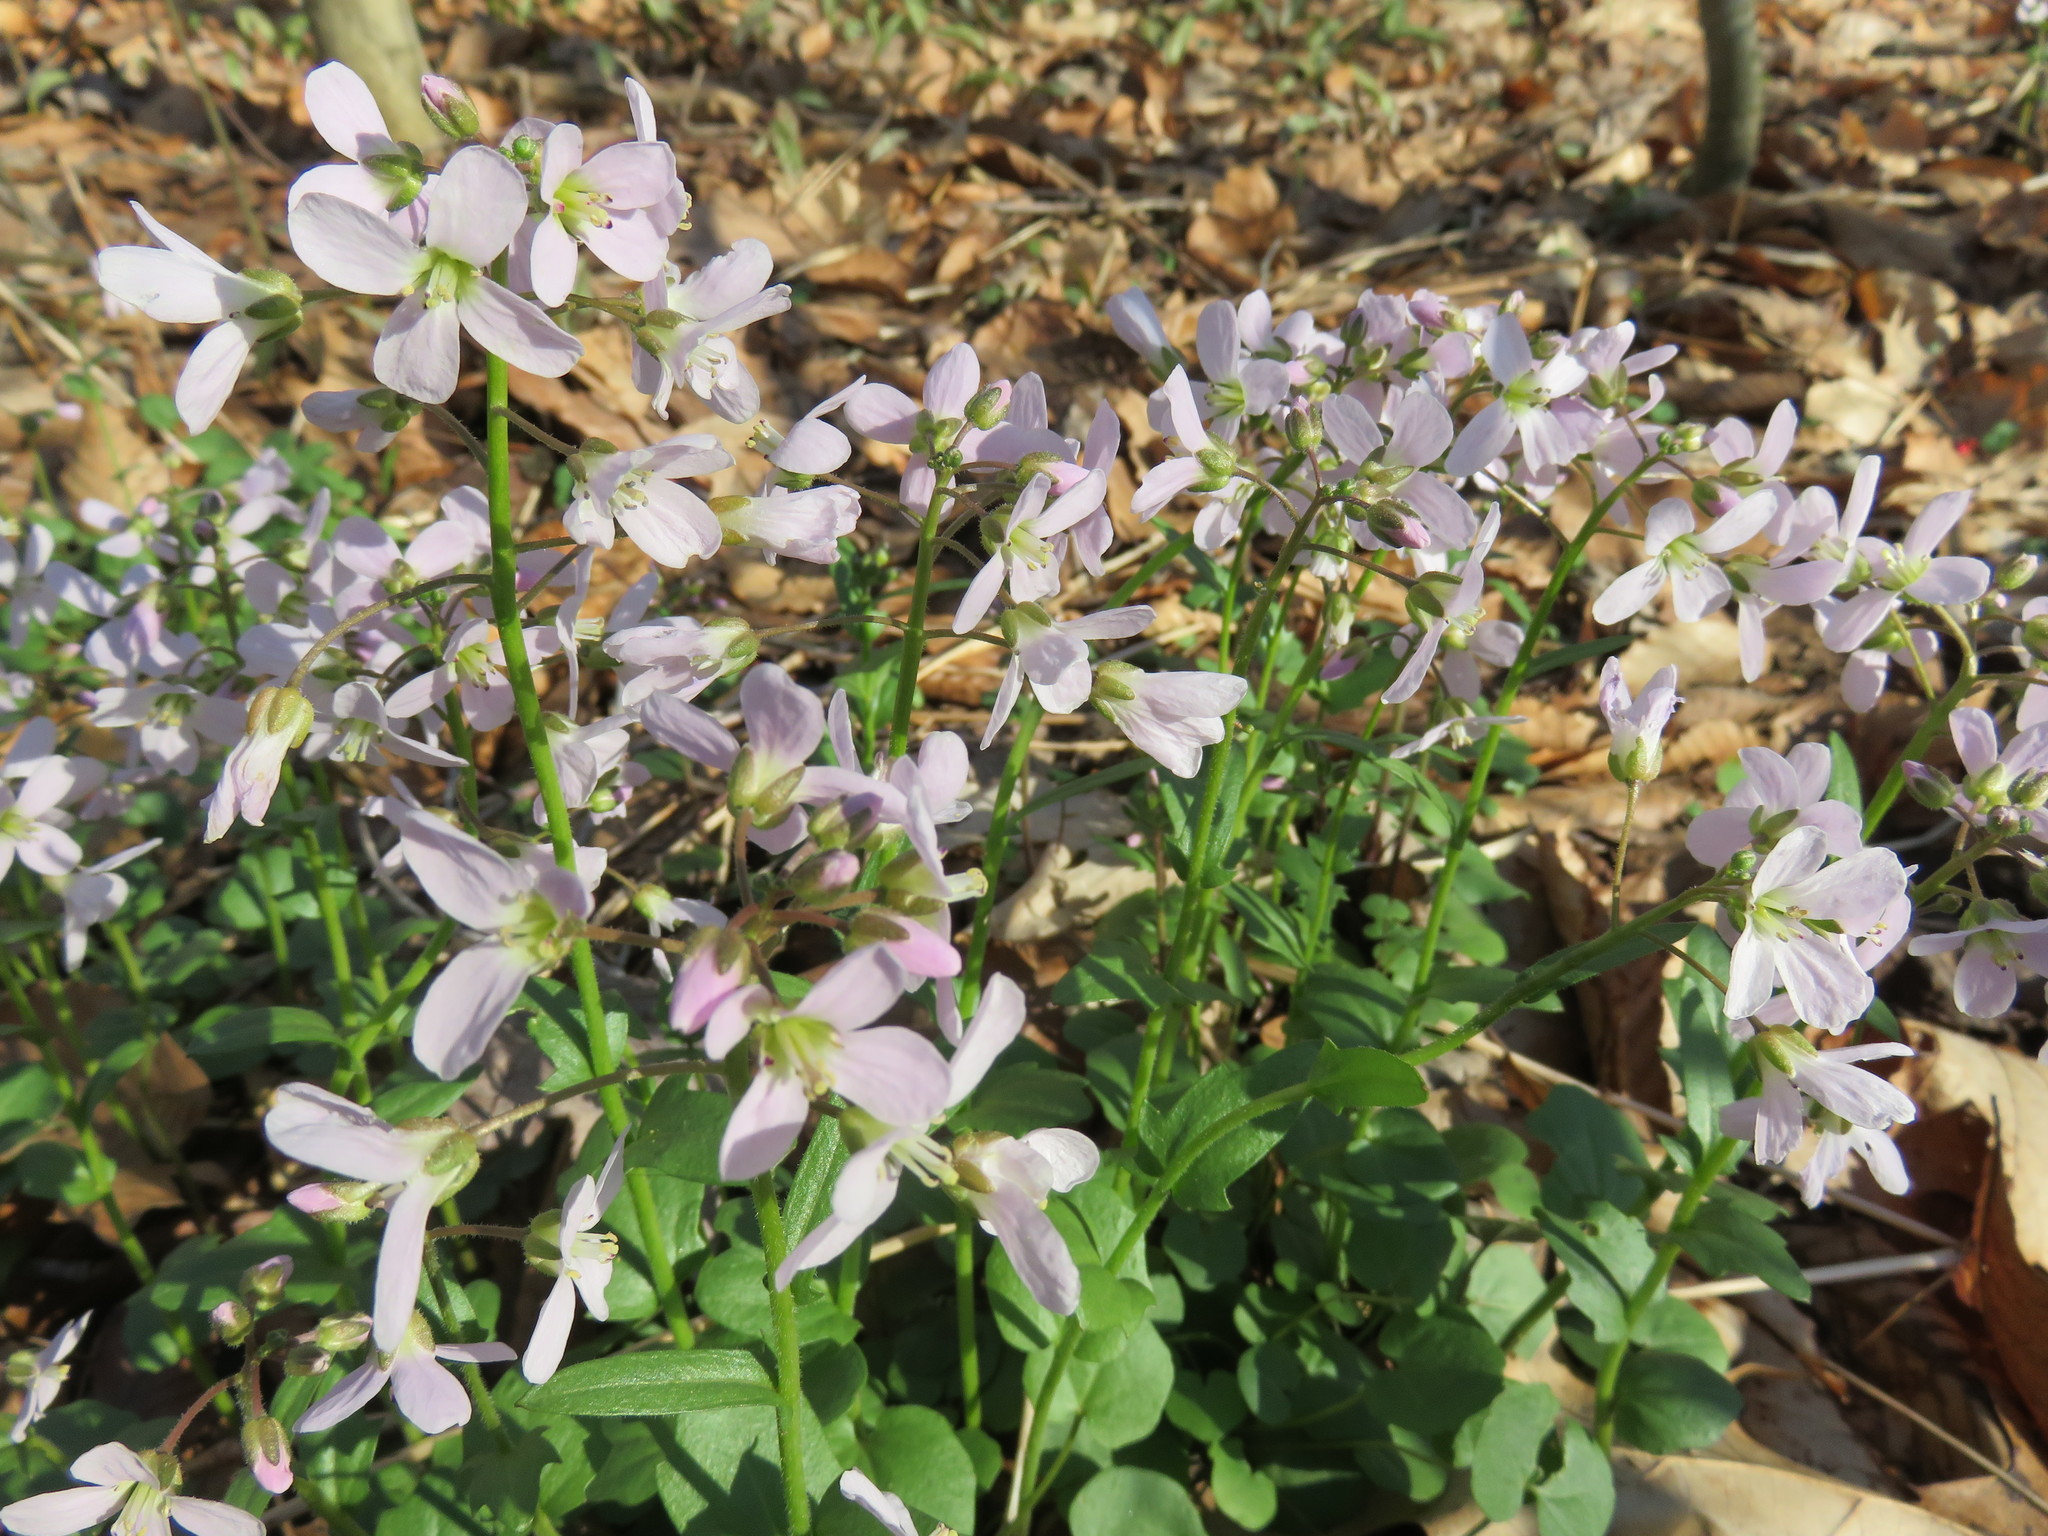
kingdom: Plantae
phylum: Tracheophyta
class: Magnoliopsida
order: Brassicales
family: Brassicaceae
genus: Cardamine
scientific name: Cardamine douglassii
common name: Purple cress
